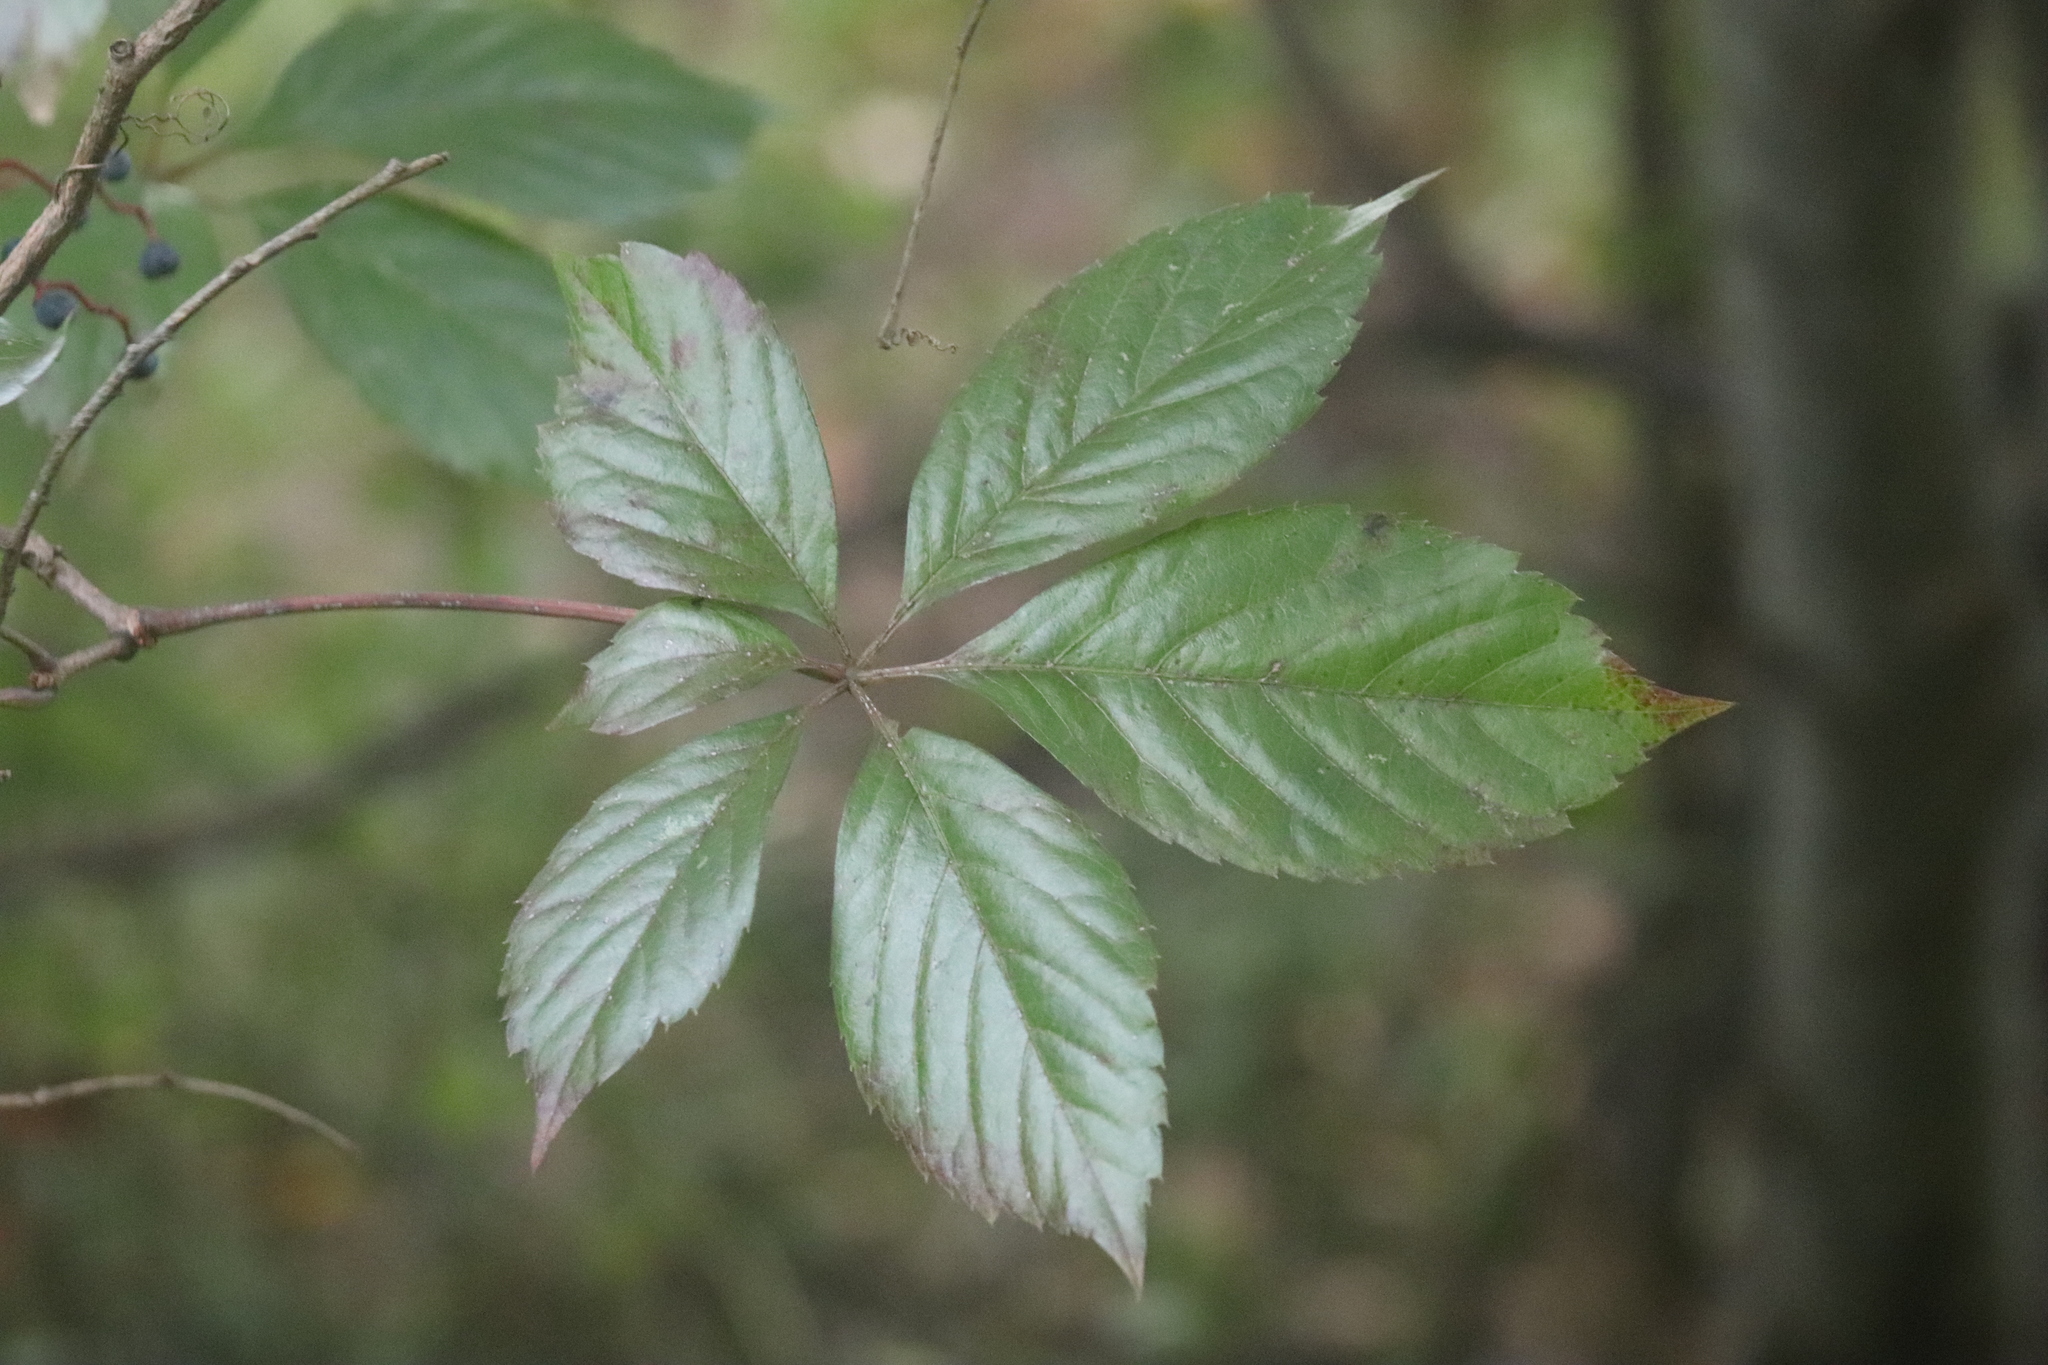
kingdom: Plantae
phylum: Tracheophyta
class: Magnoliopsida
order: Vitales
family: Vitaceae
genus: Parthenocissus
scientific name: Parthenocissus quinquefolia
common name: Virginia-creeper
